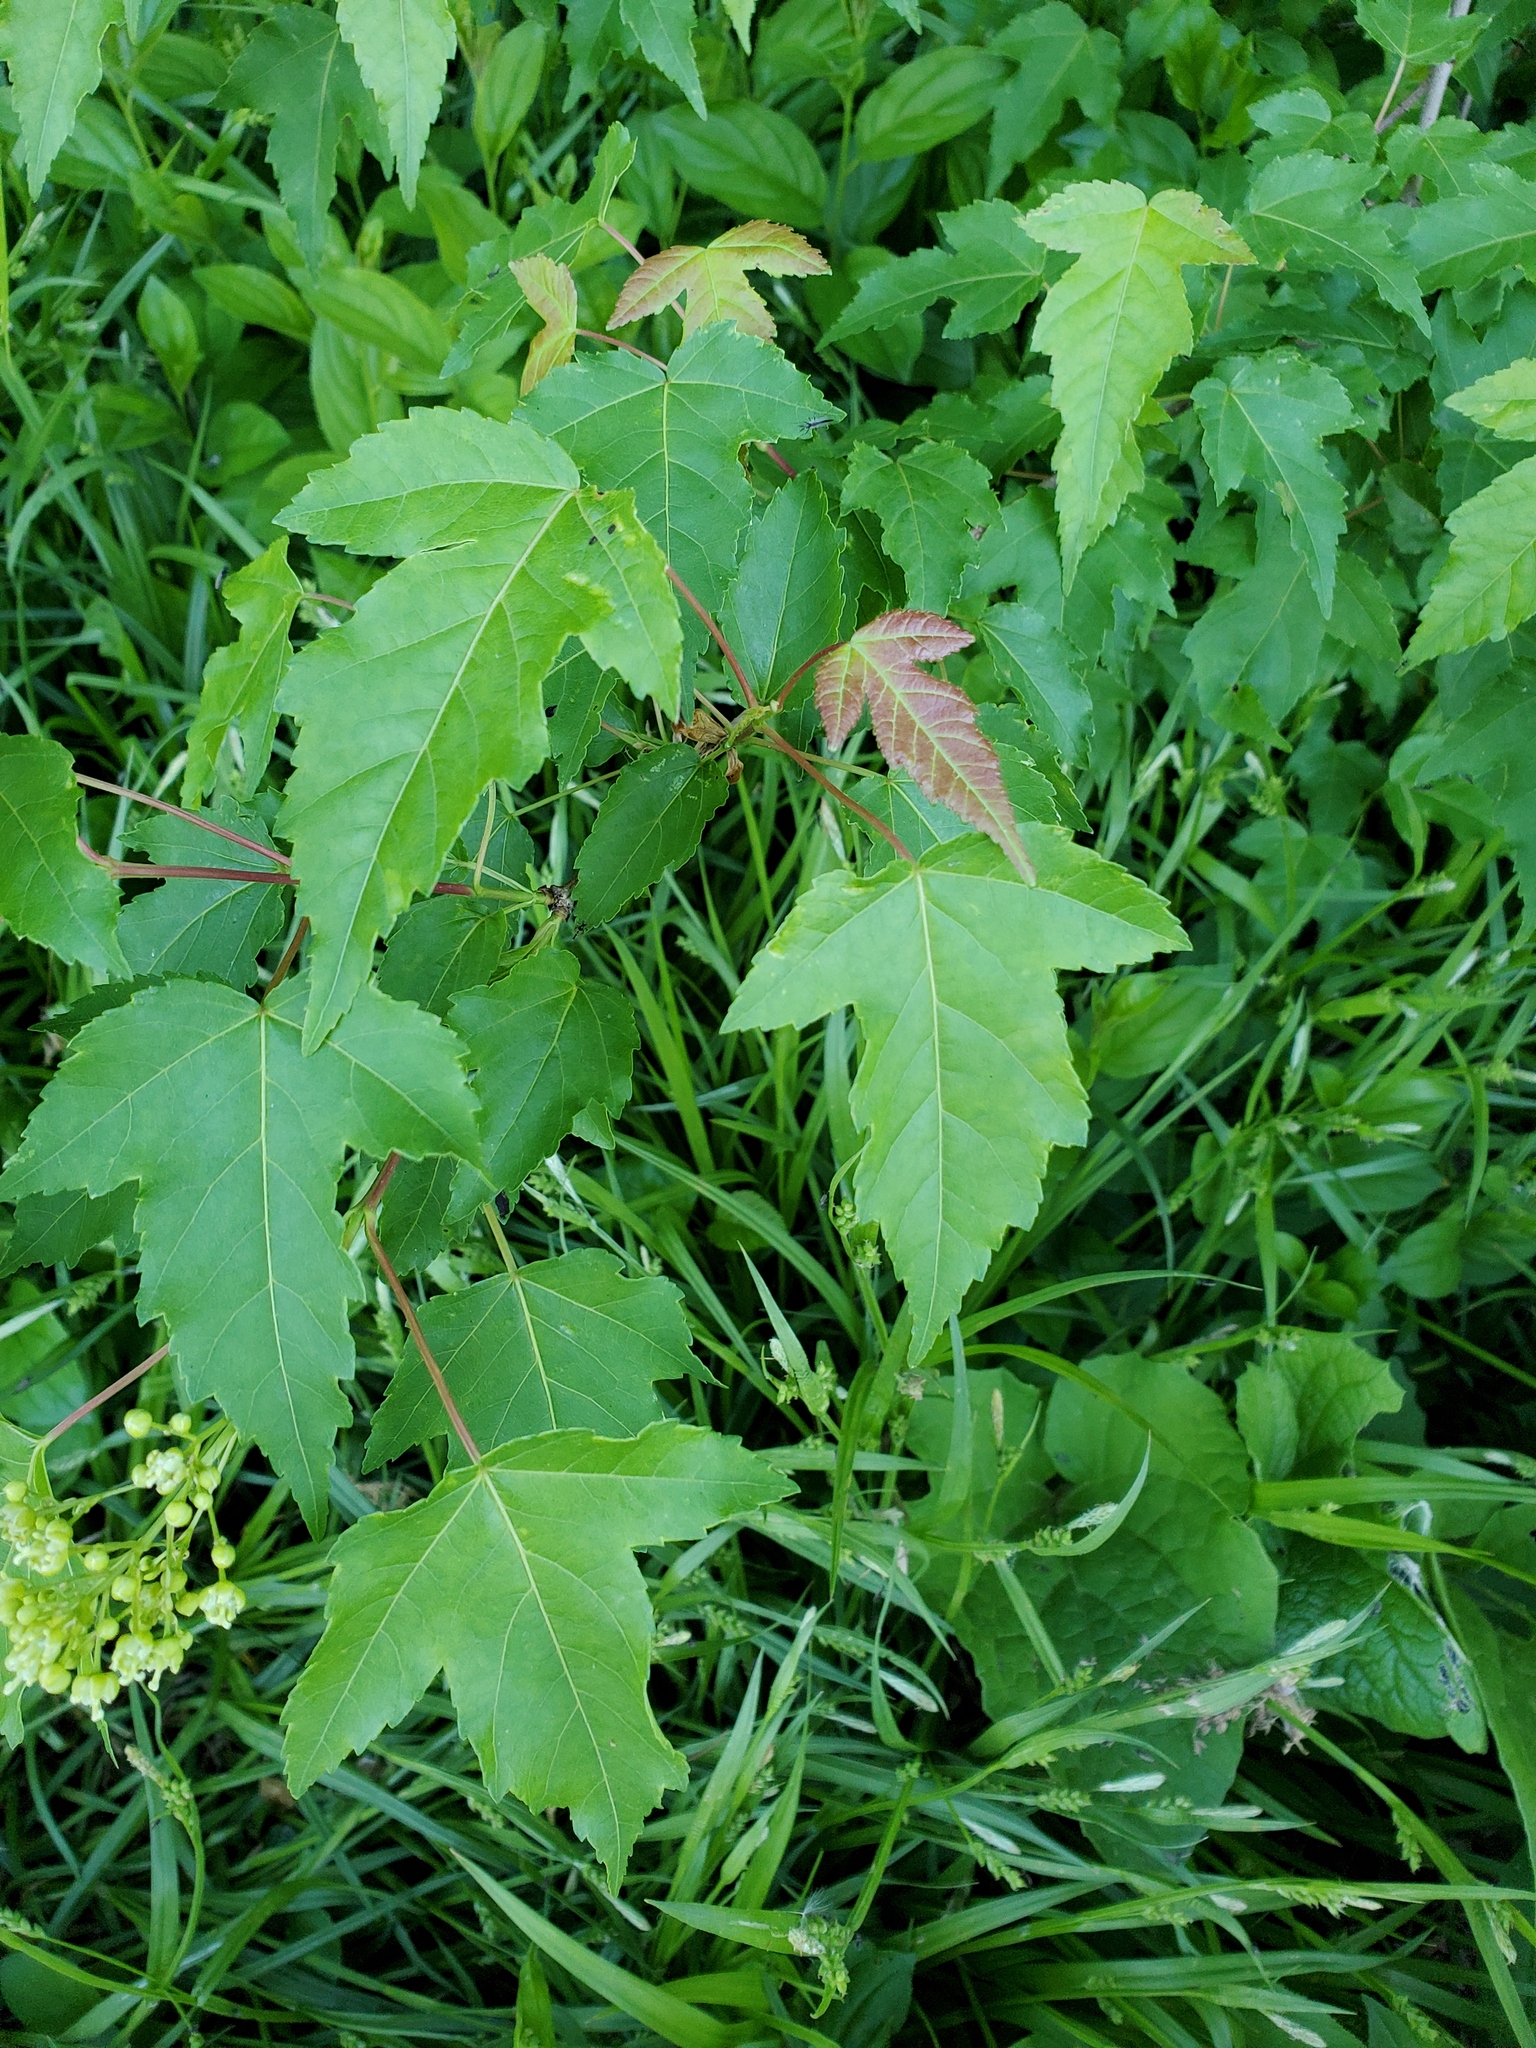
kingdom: Plantae
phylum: Tracheophyta
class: Magnoliopsida
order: Sapindales
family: Sapindaceae
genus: Acer
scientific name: Acer tataricum
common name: Tartar maple
